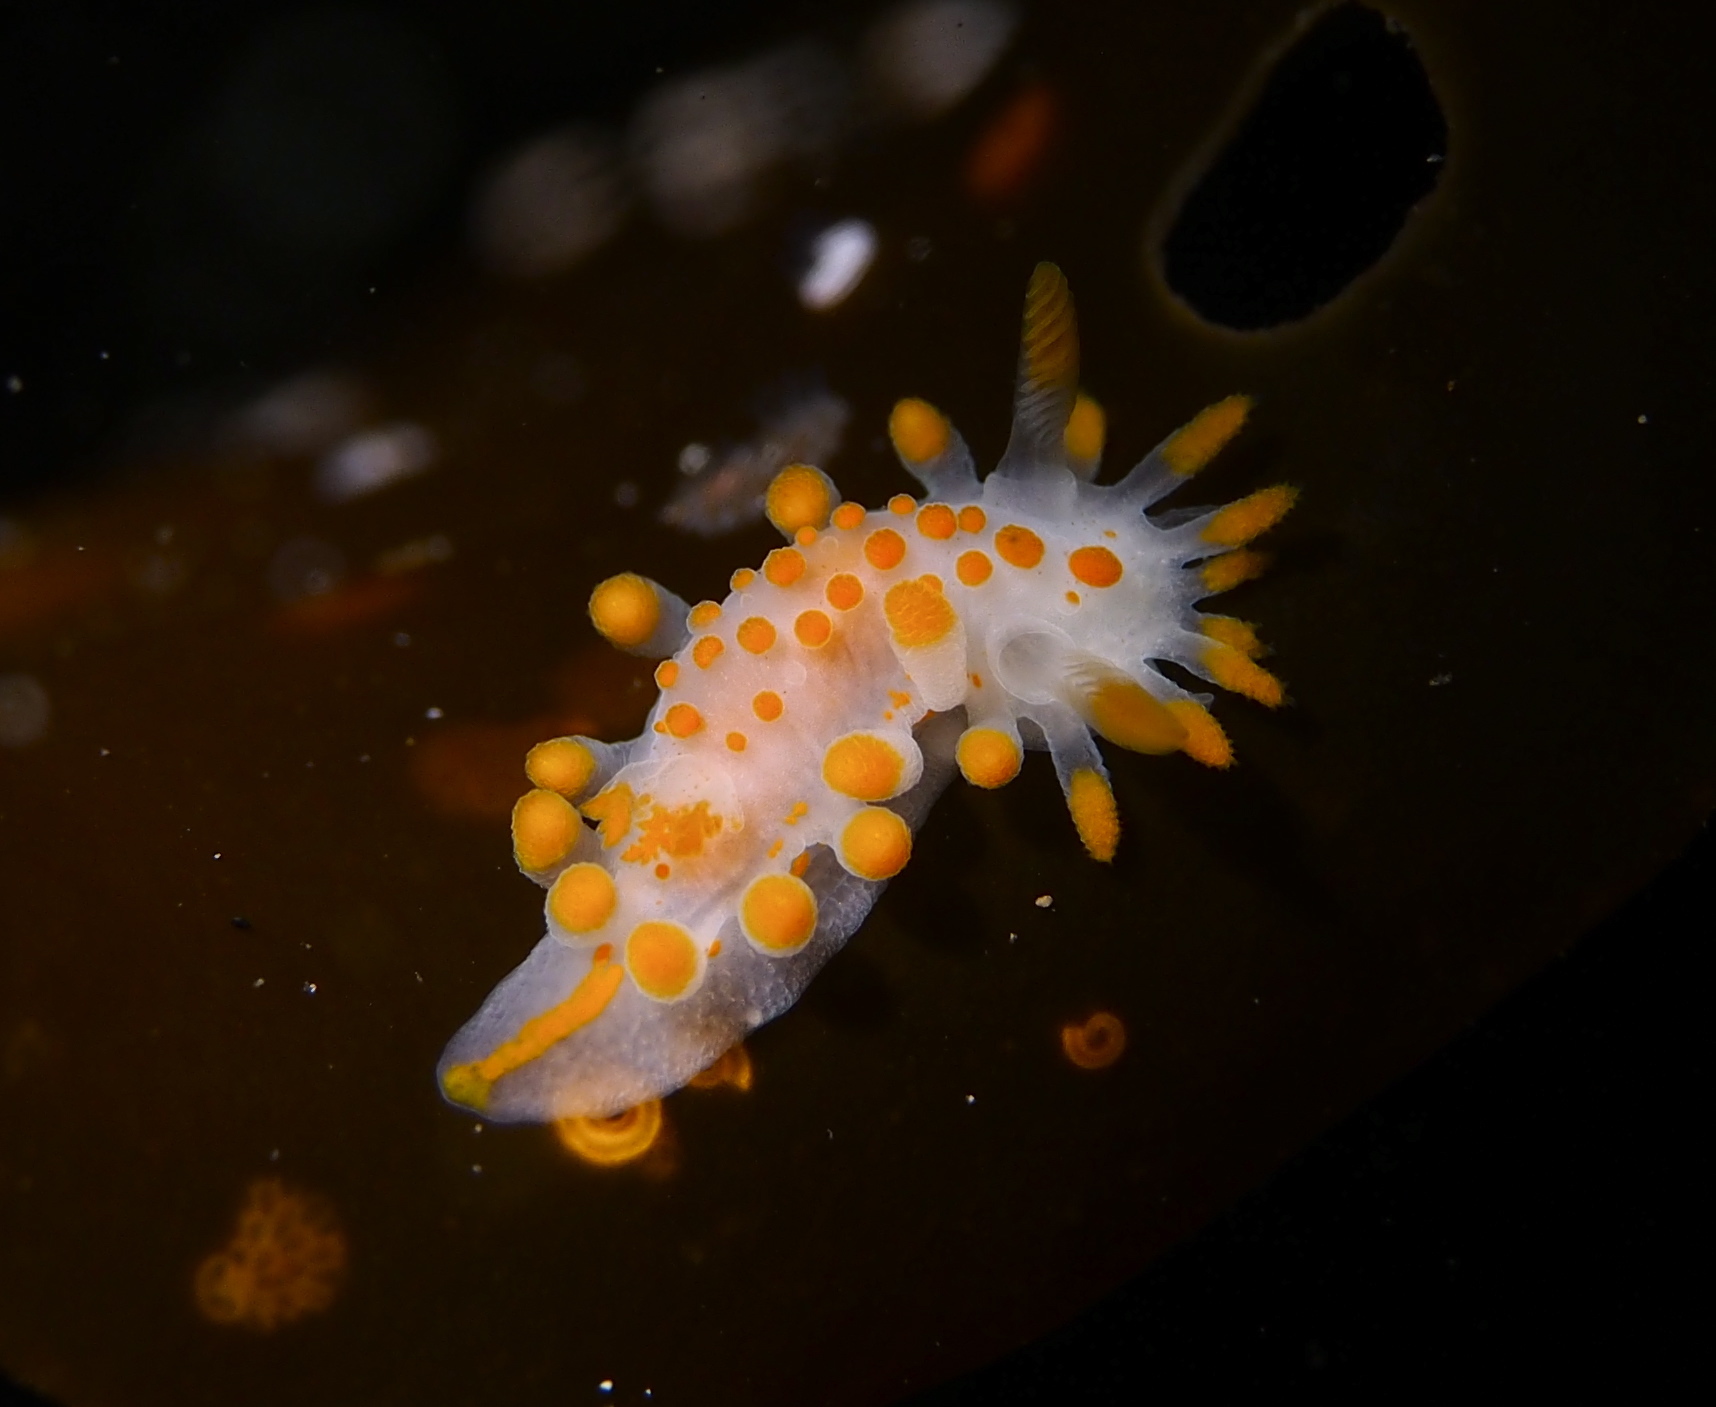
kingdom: Animalia
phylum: Mollusca
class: Gastropoda
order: Nudibranchia
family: Polyceridae
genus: Limacia
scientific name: Limacia clavigera
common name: Orange-clubbed sea slug
